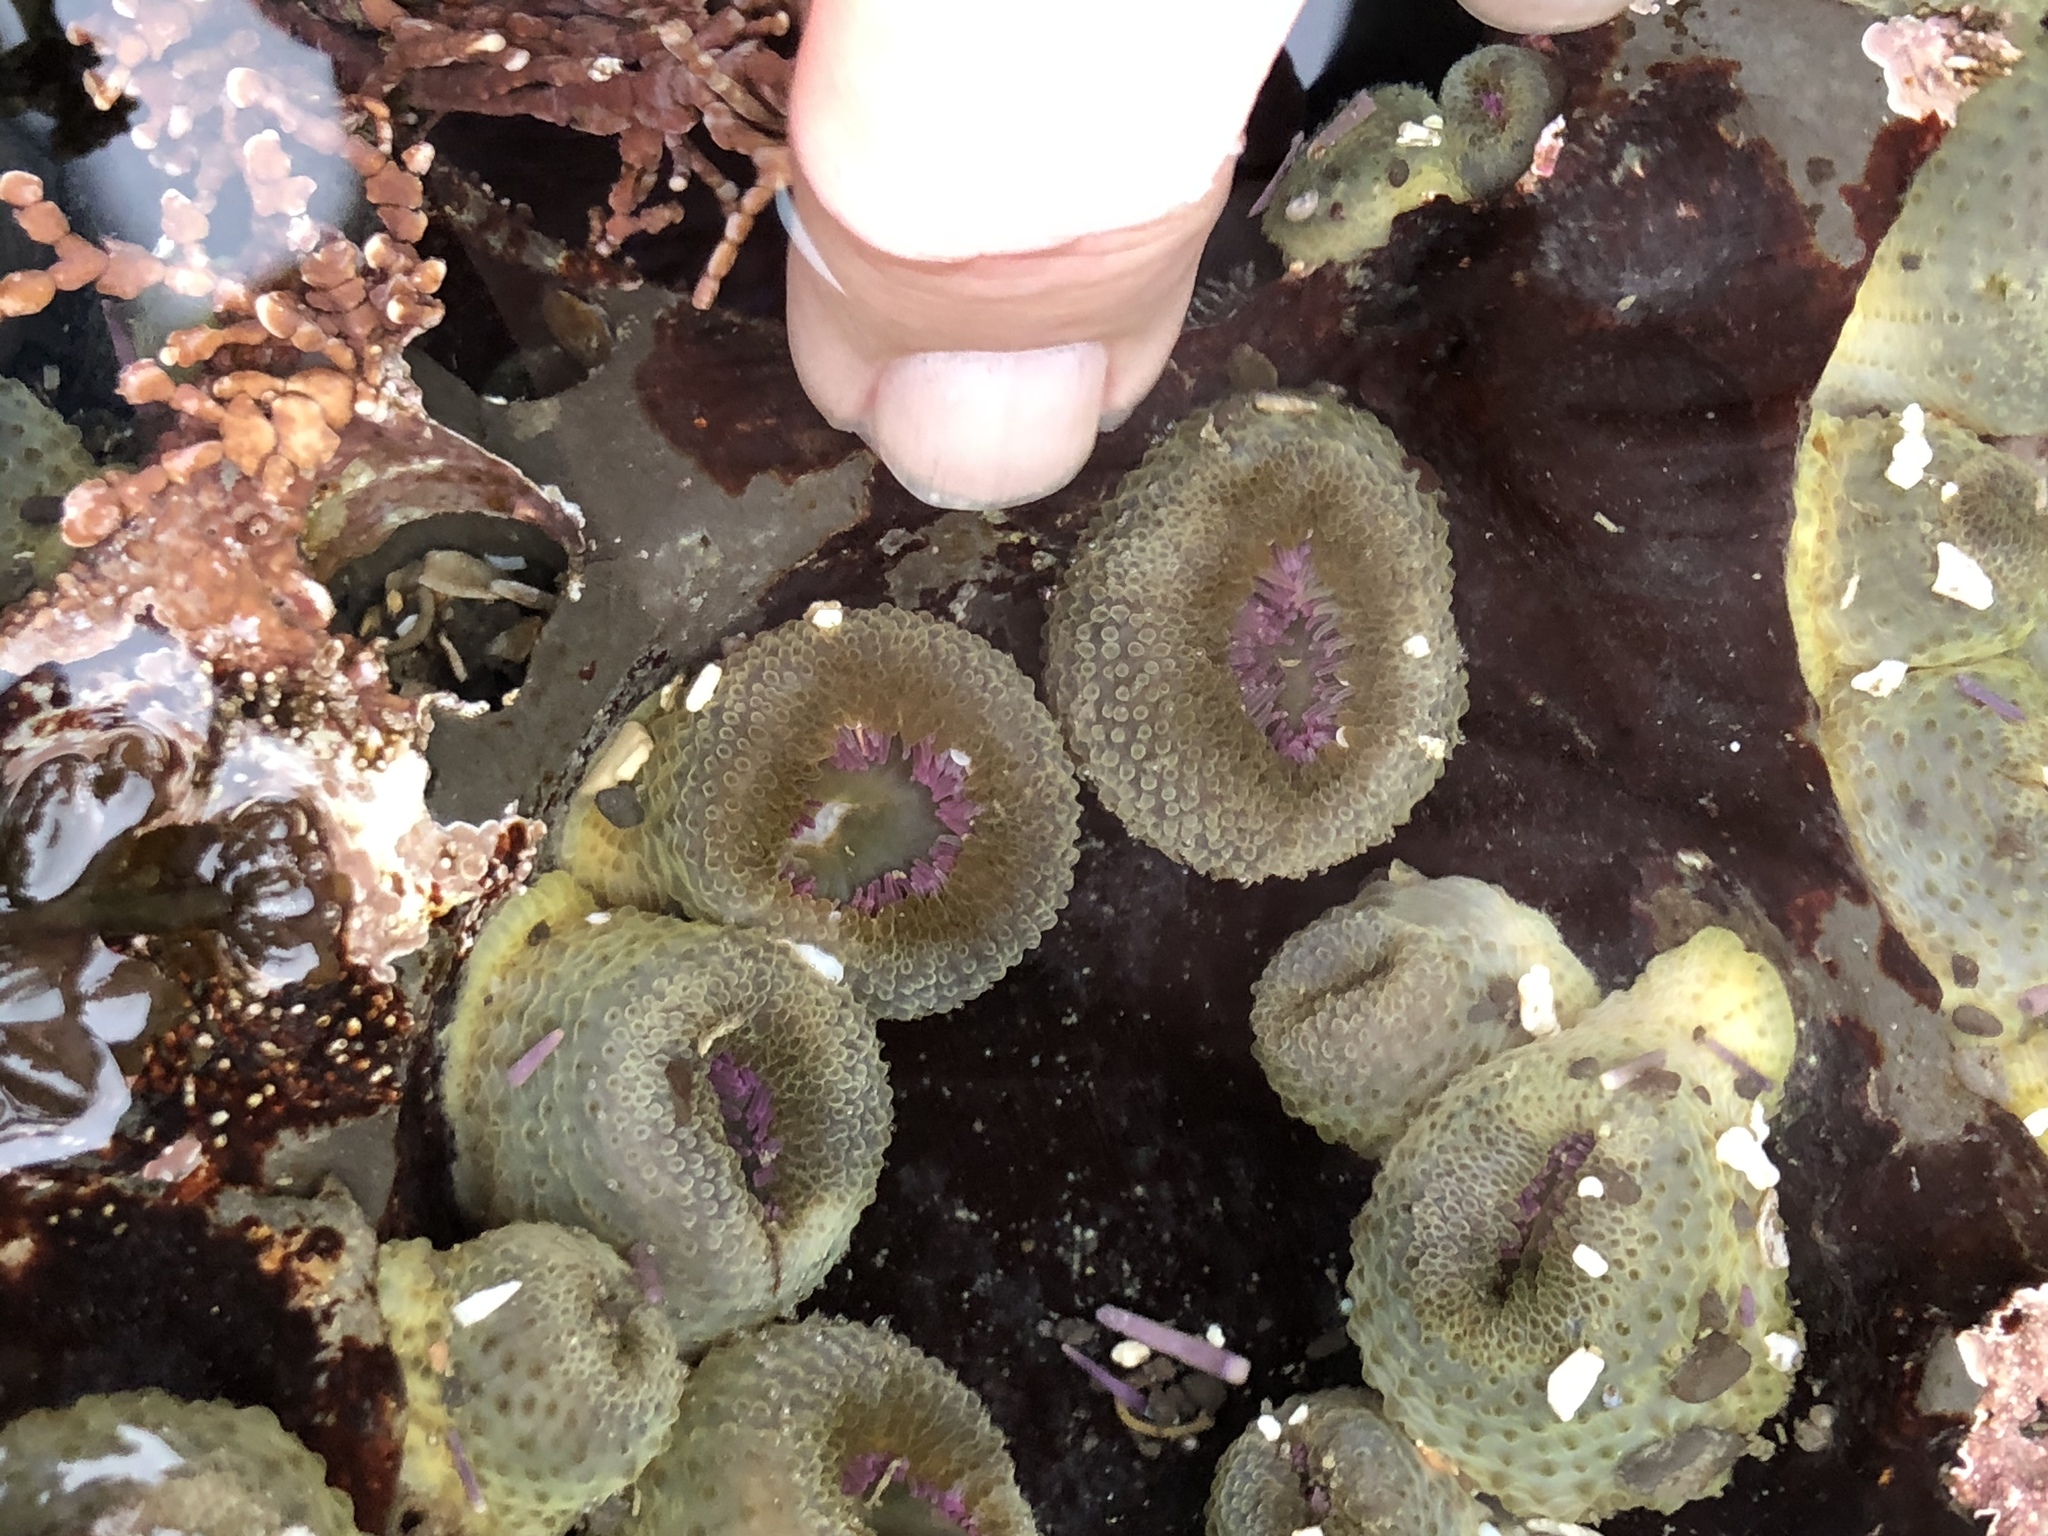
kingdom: Animalia
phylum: Cnidaria
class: Anthozoa
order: Actiniaria
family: Actiniidae
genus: Anthopleura
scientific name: Anthopleura elegantissima
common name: Clonal anemone
